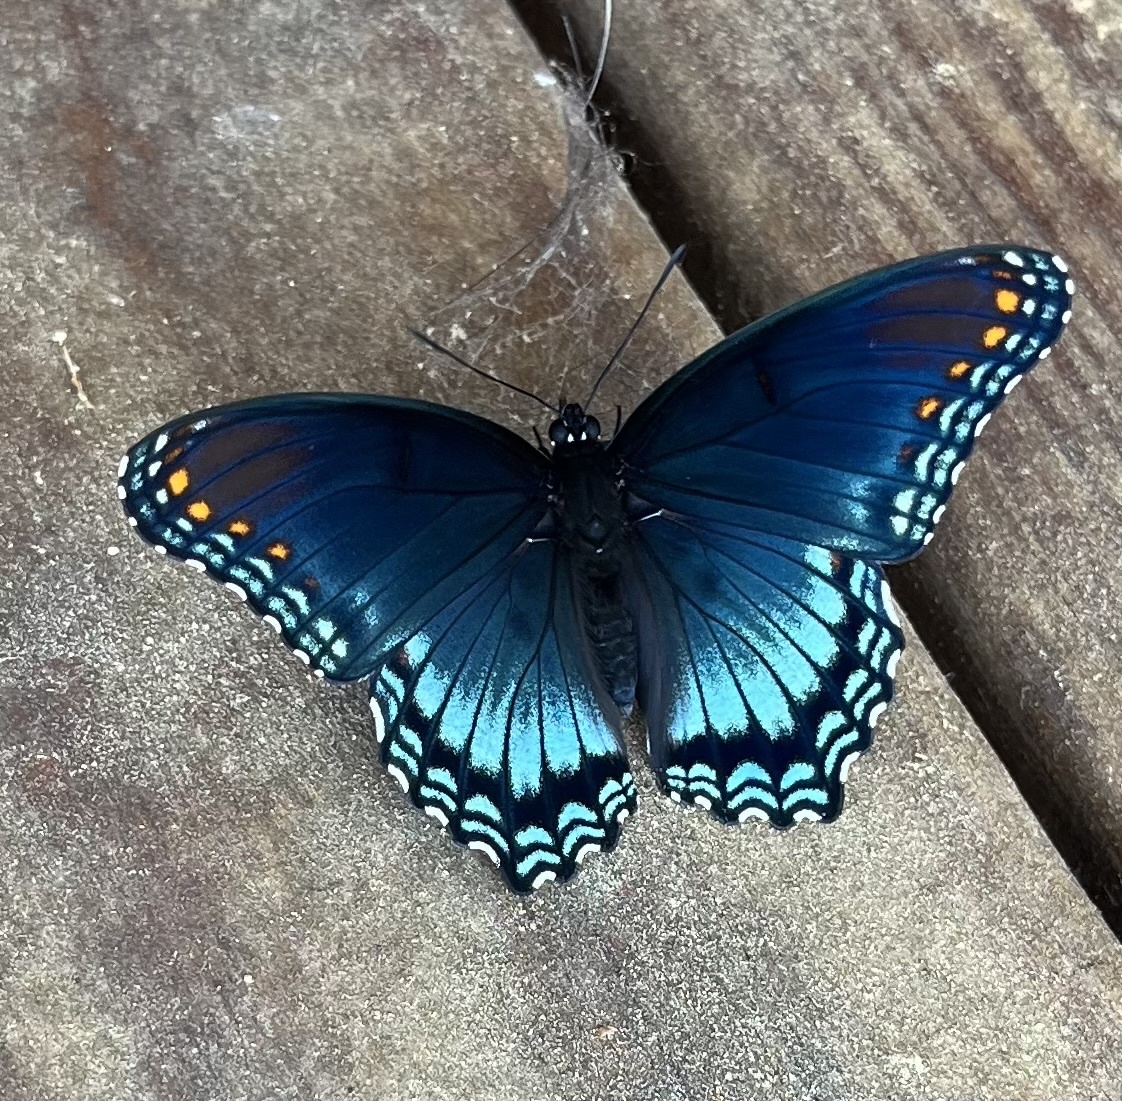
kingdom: Animalia
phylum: Arthropoda
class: Insecta
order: Lepidoptera
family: Nymphalidae
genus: Limenitis
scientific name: Limenitis astyanax
